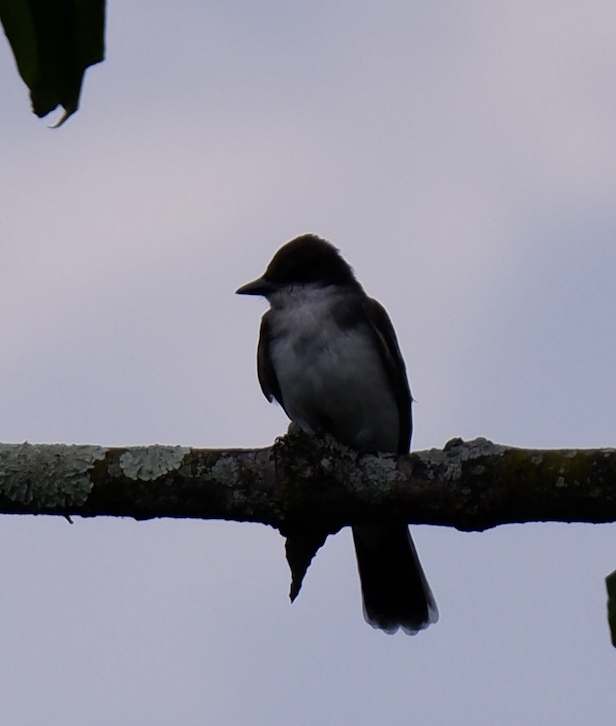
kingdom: Animalia
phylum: Chordata
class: Aves
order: Passeriformes
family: Tyrannidae
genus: Tyrannus
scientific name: Tyrannus tyrannus
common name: Eastern kingbird
